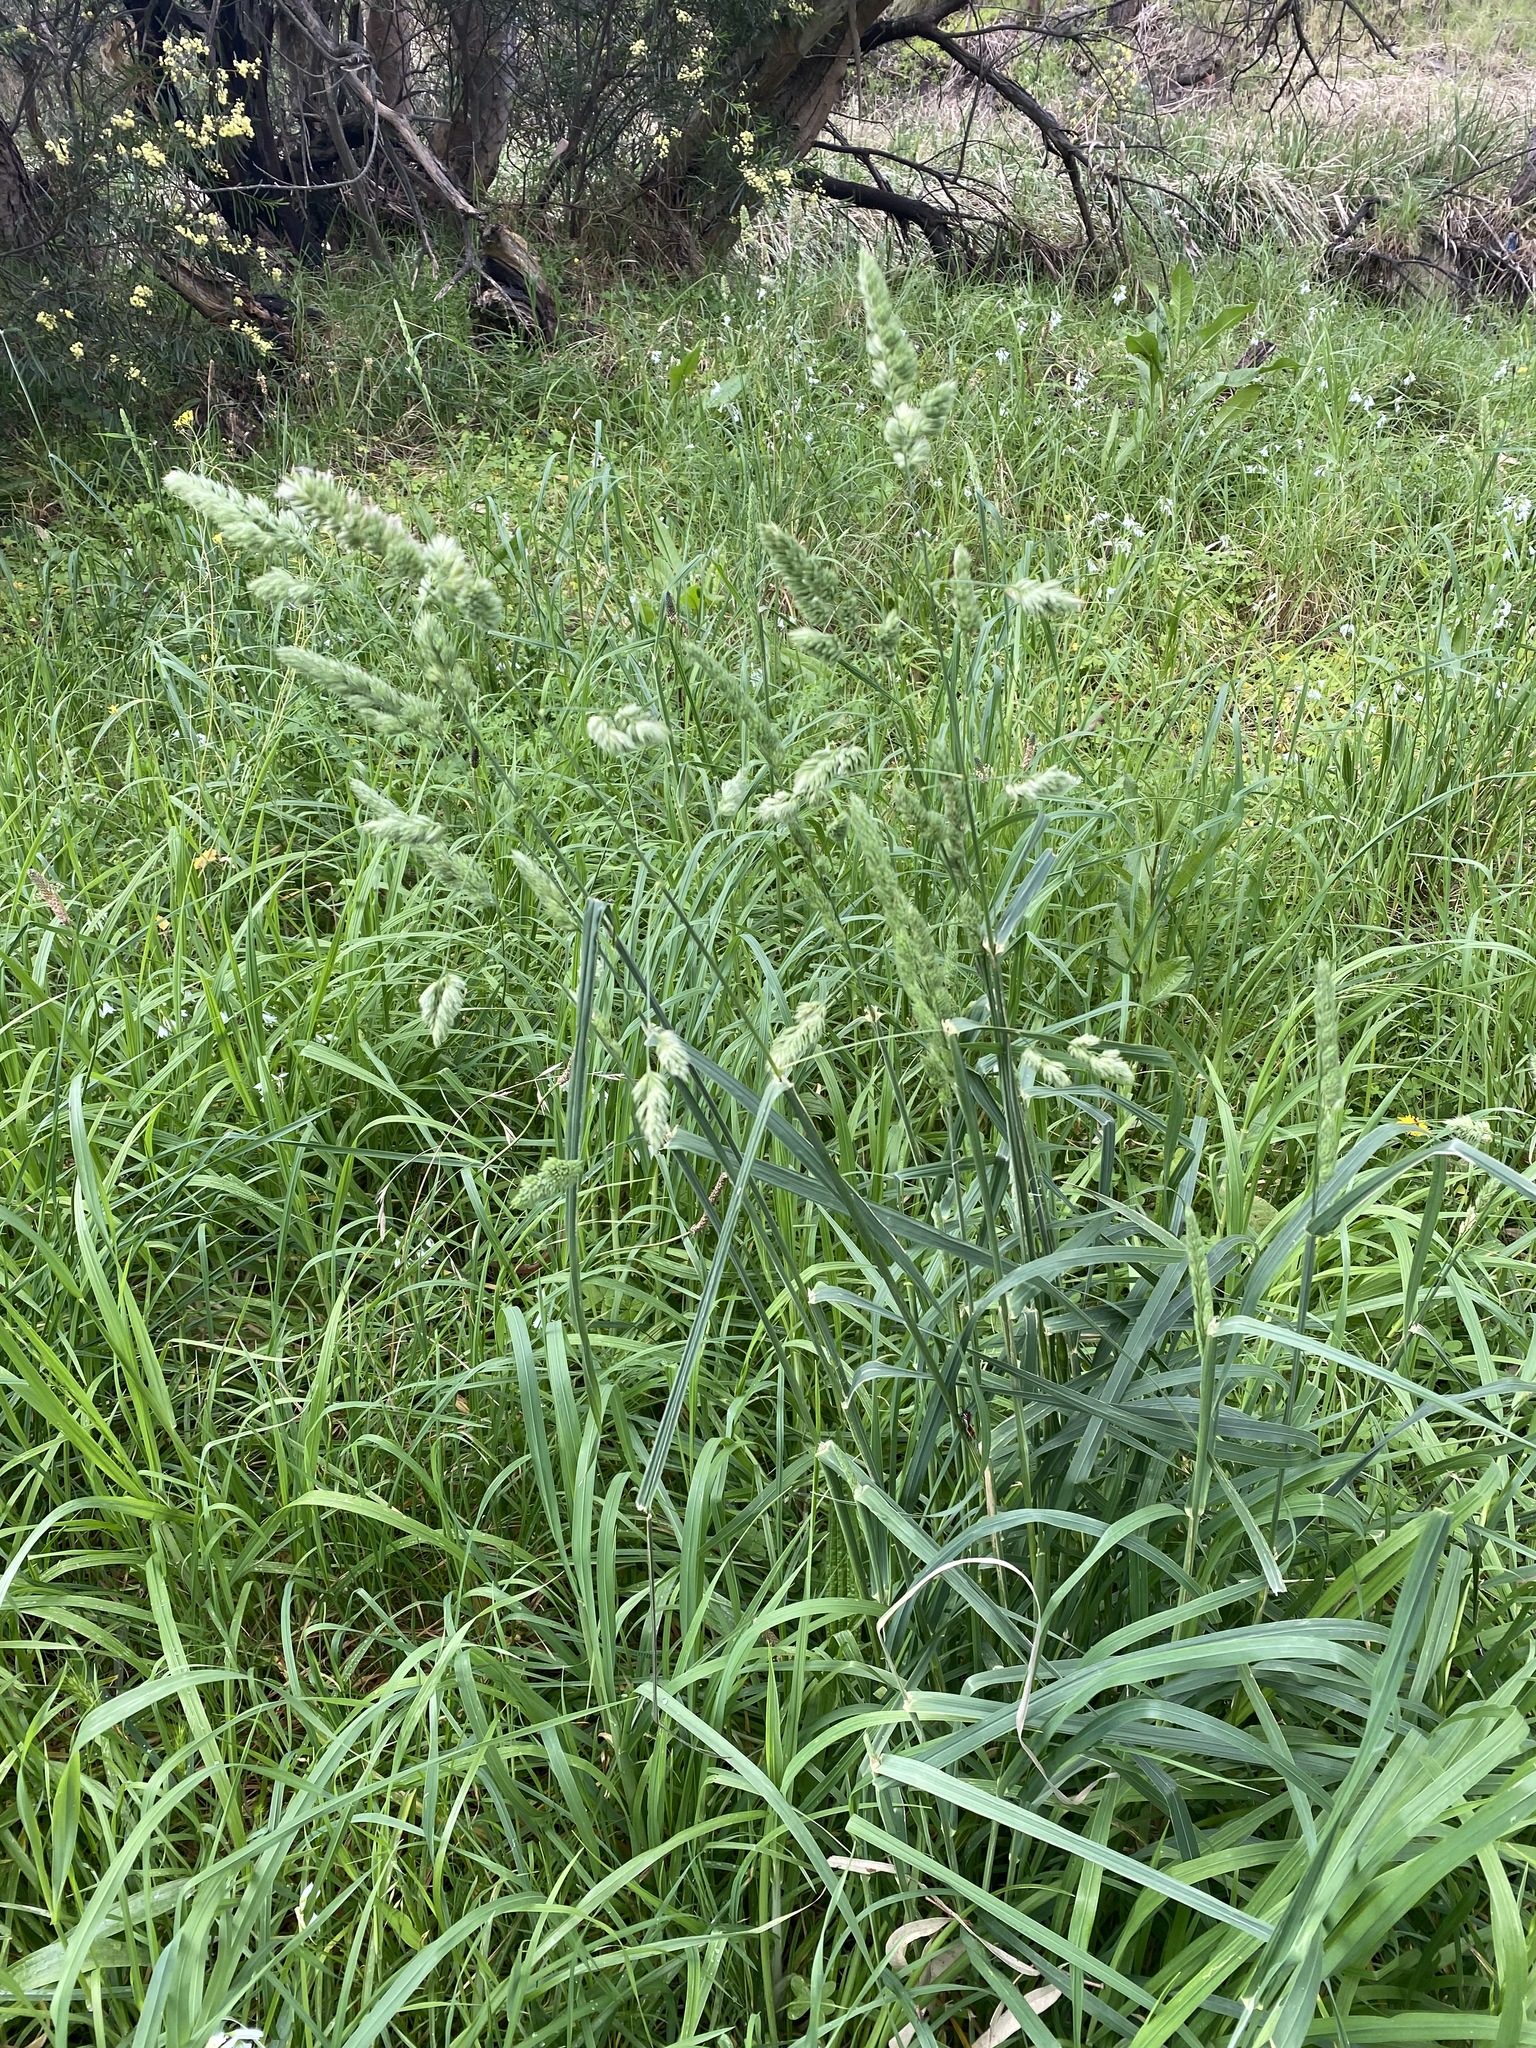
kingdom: Plantae
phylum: Tracheophyta
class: Liliopsida
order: Poales
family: Poaceae
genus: Dactylis
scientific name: Dactylis glomerata
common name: Orchardgrass
